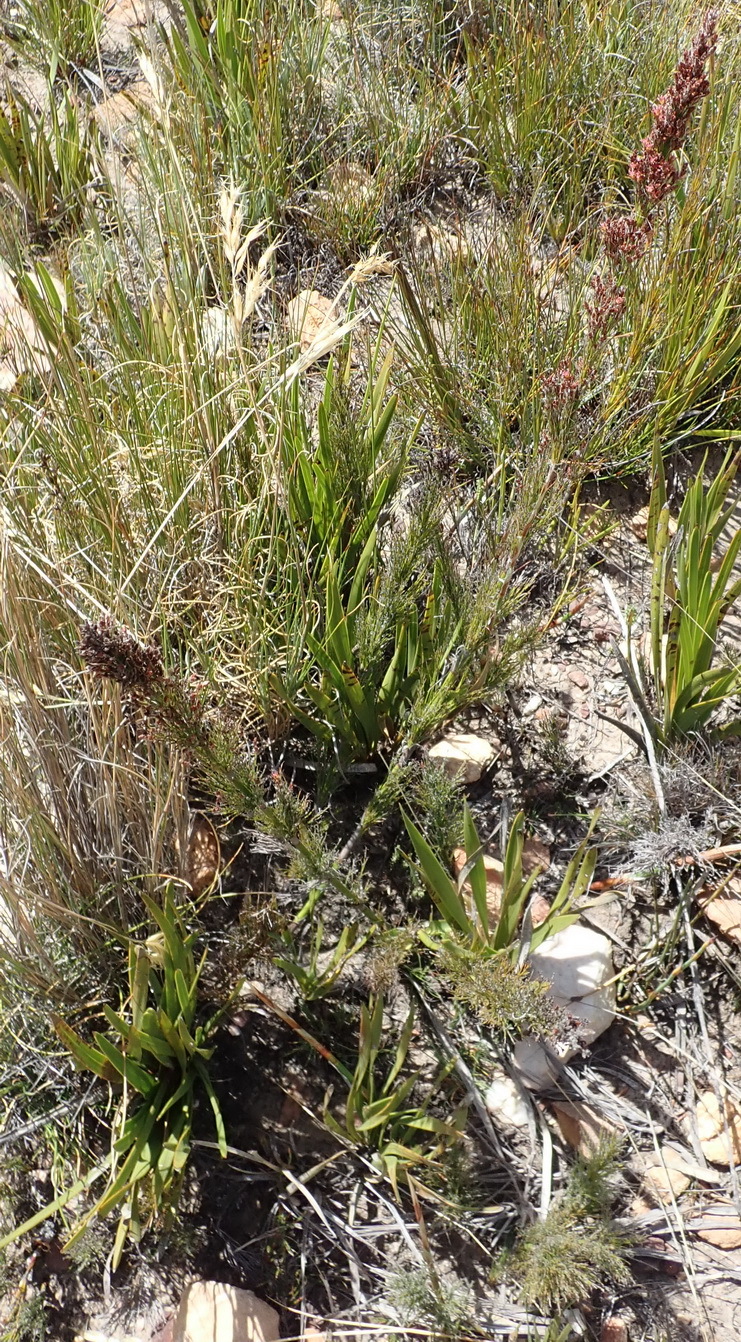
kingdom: Plantae
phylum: Tracheophyta
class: Liliopsida
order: Poales
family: Restionaceae
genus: Rhodocoma
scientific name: Rhodocoma capensis
